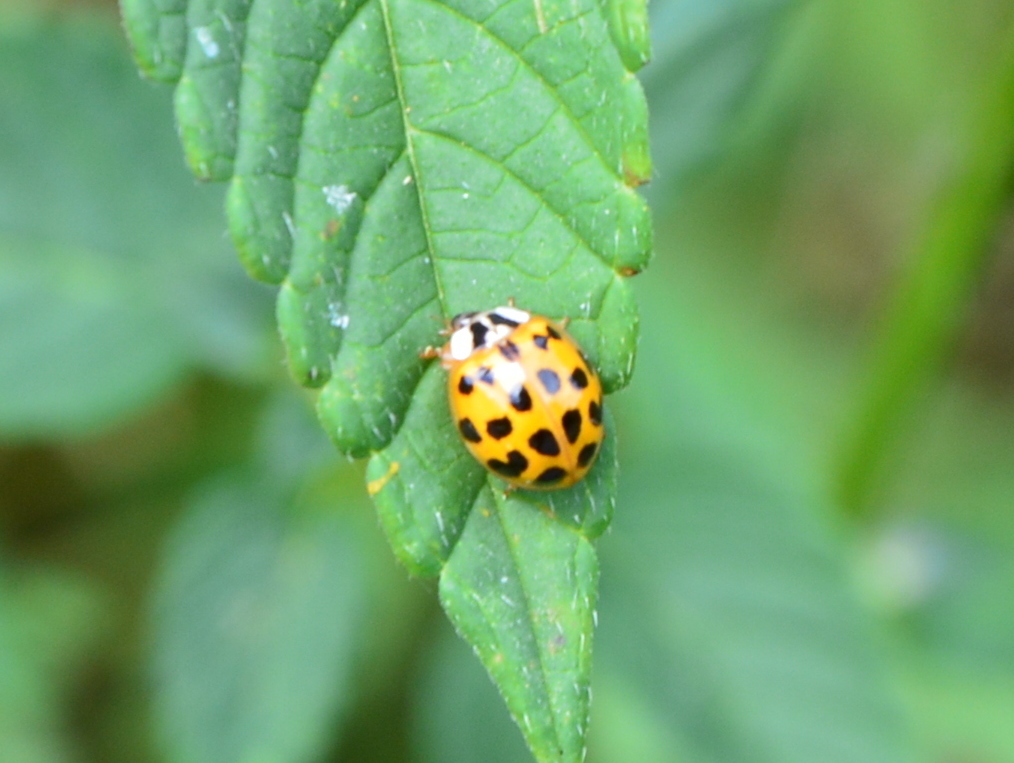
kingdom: Animalia
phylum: Arthropoda
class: Insecta
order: Coleoptera
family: Coccinellidae
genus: Harmonia
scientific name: Harmonia axyridis
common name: Harlequin ladybird
